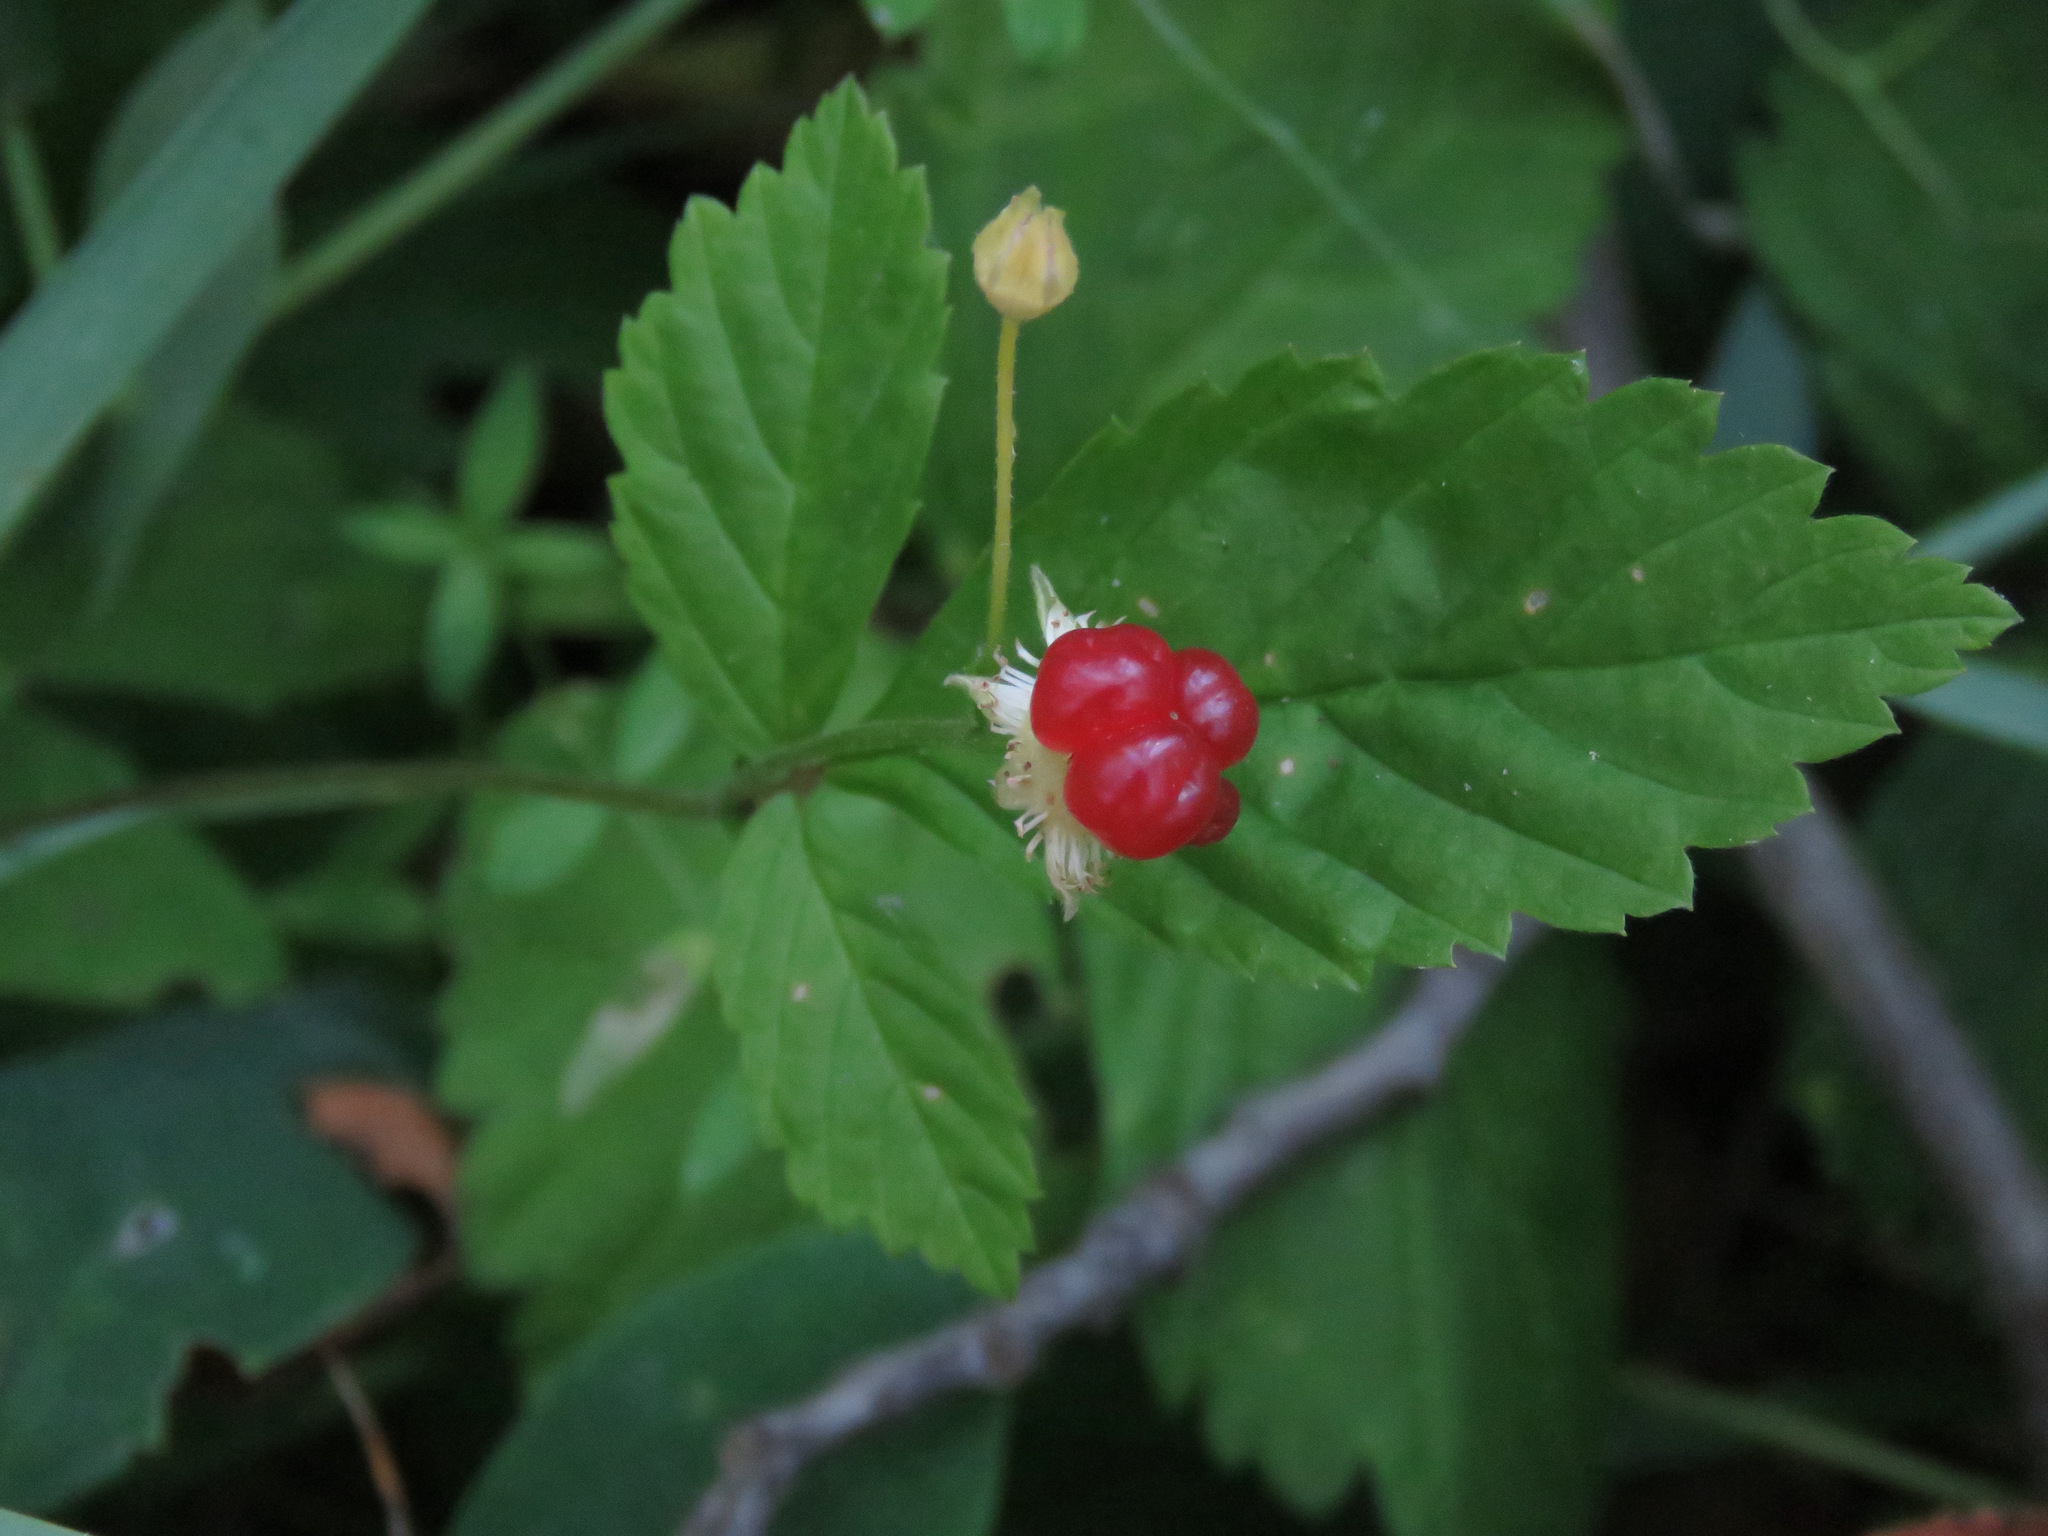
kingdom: Plantae
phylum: Tracheophyta
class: Magnoliopsida
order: Rosales
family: Rosaceae
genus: Rubus
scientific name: Rubus pubescens
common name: Dwarf raspberry
